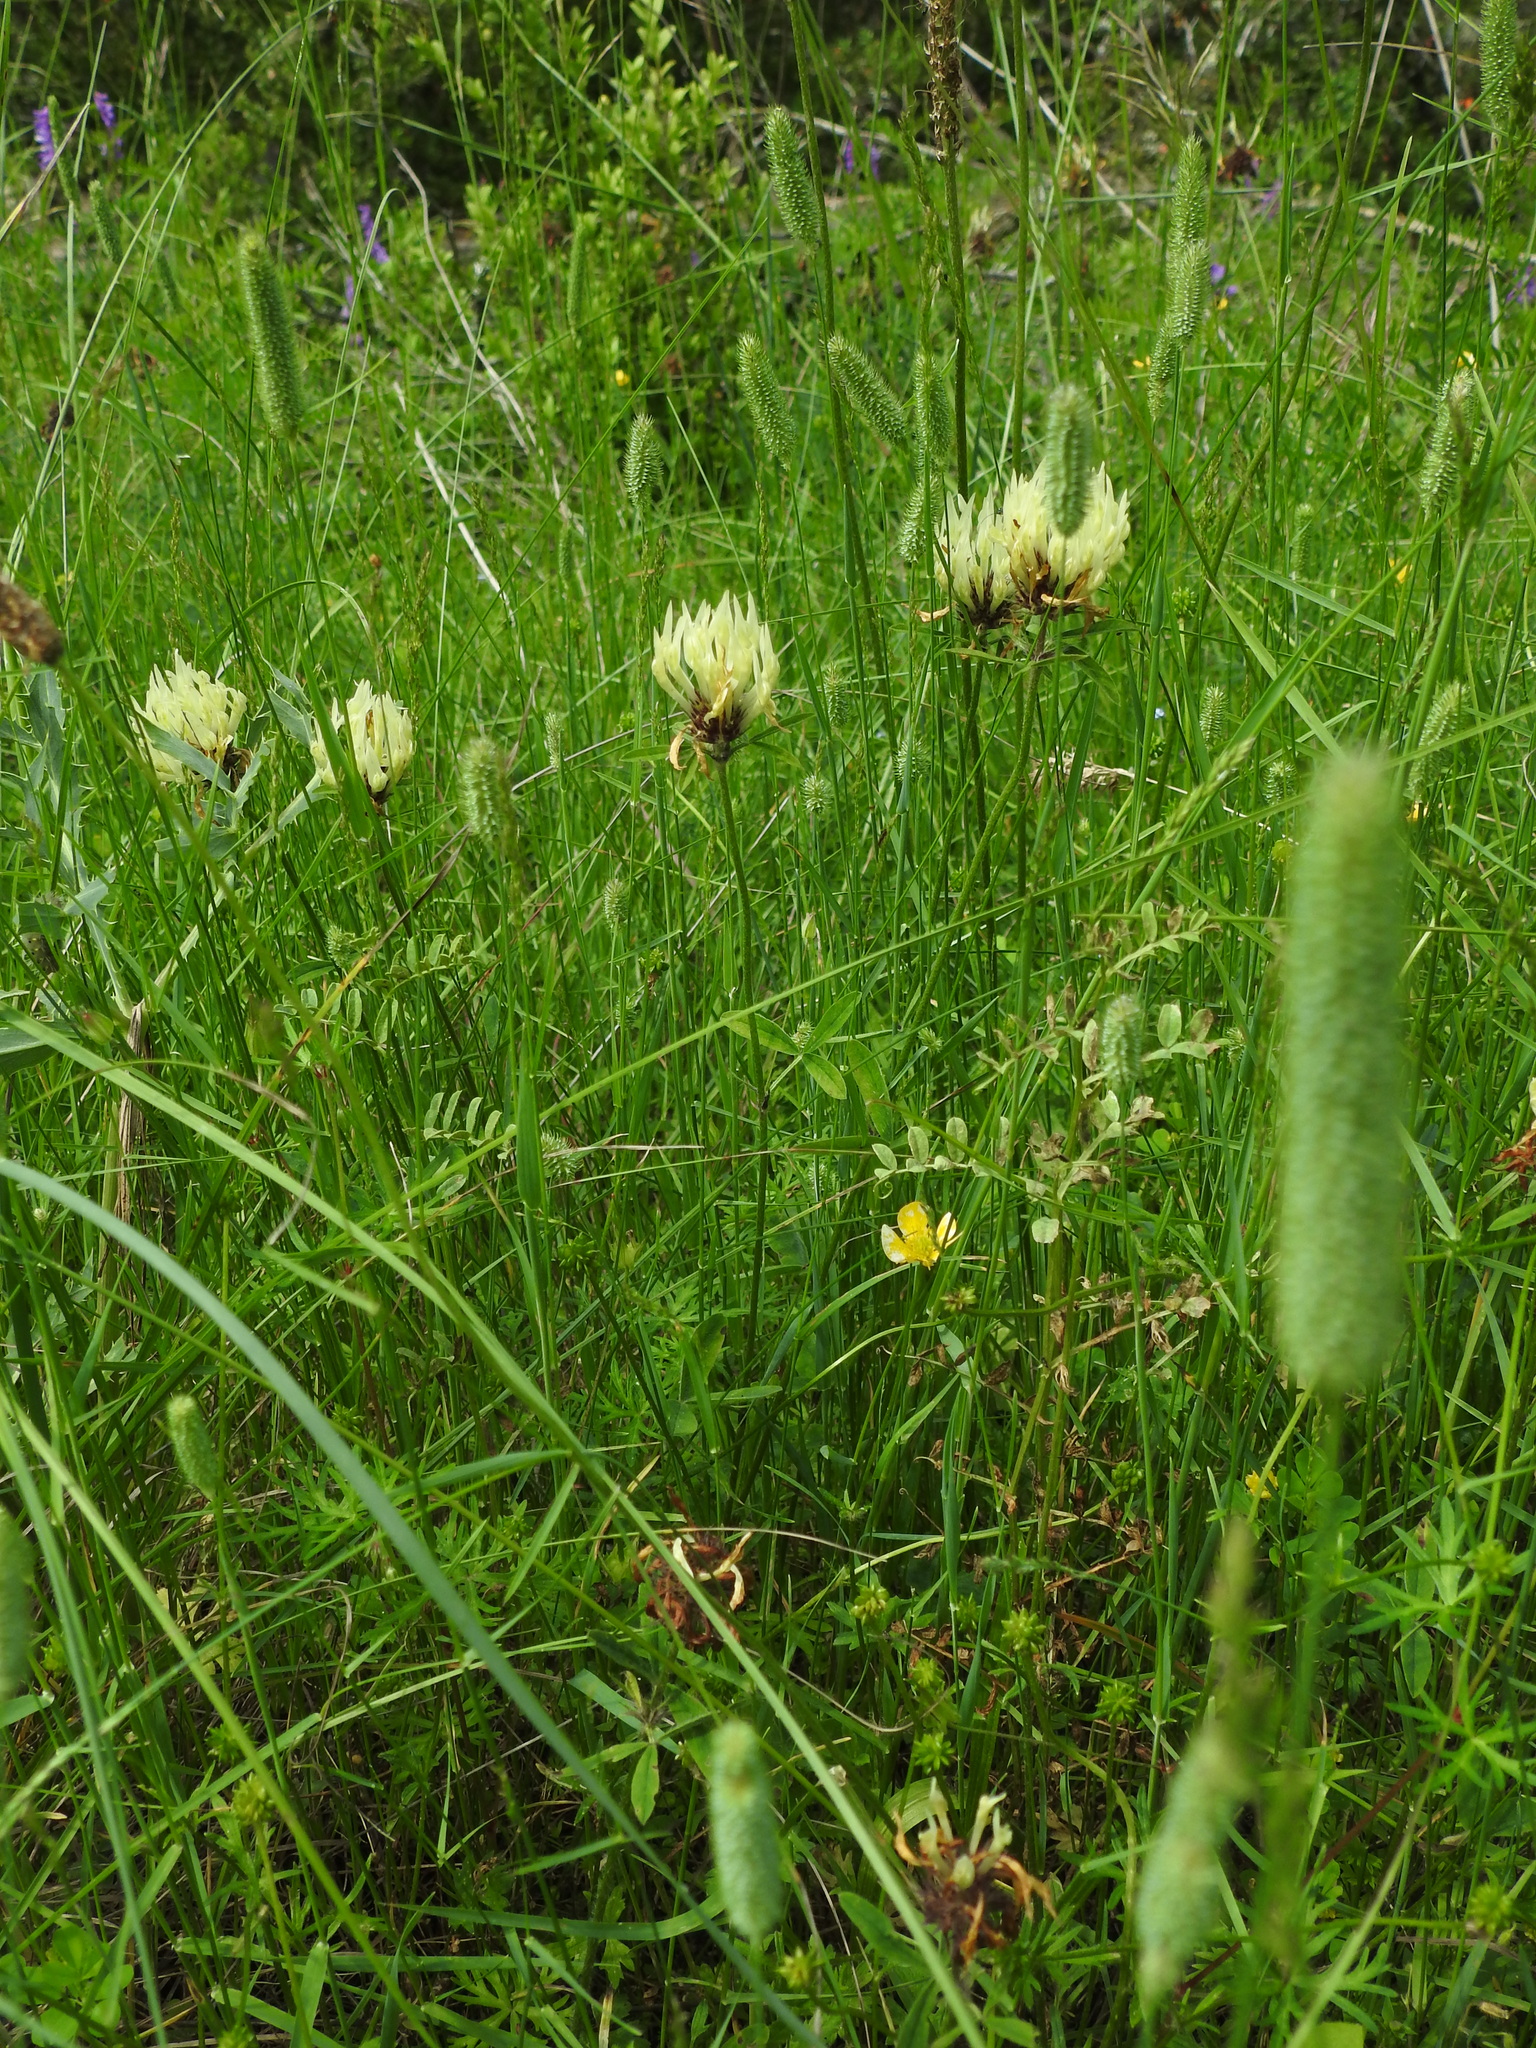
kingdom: Plantae
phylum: Tracheophyta
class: Magnoliopsida
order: Fabales
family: Fabaceae
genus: Trifolium
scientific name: Trifolium ochroleucon
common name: Sulphur clover
